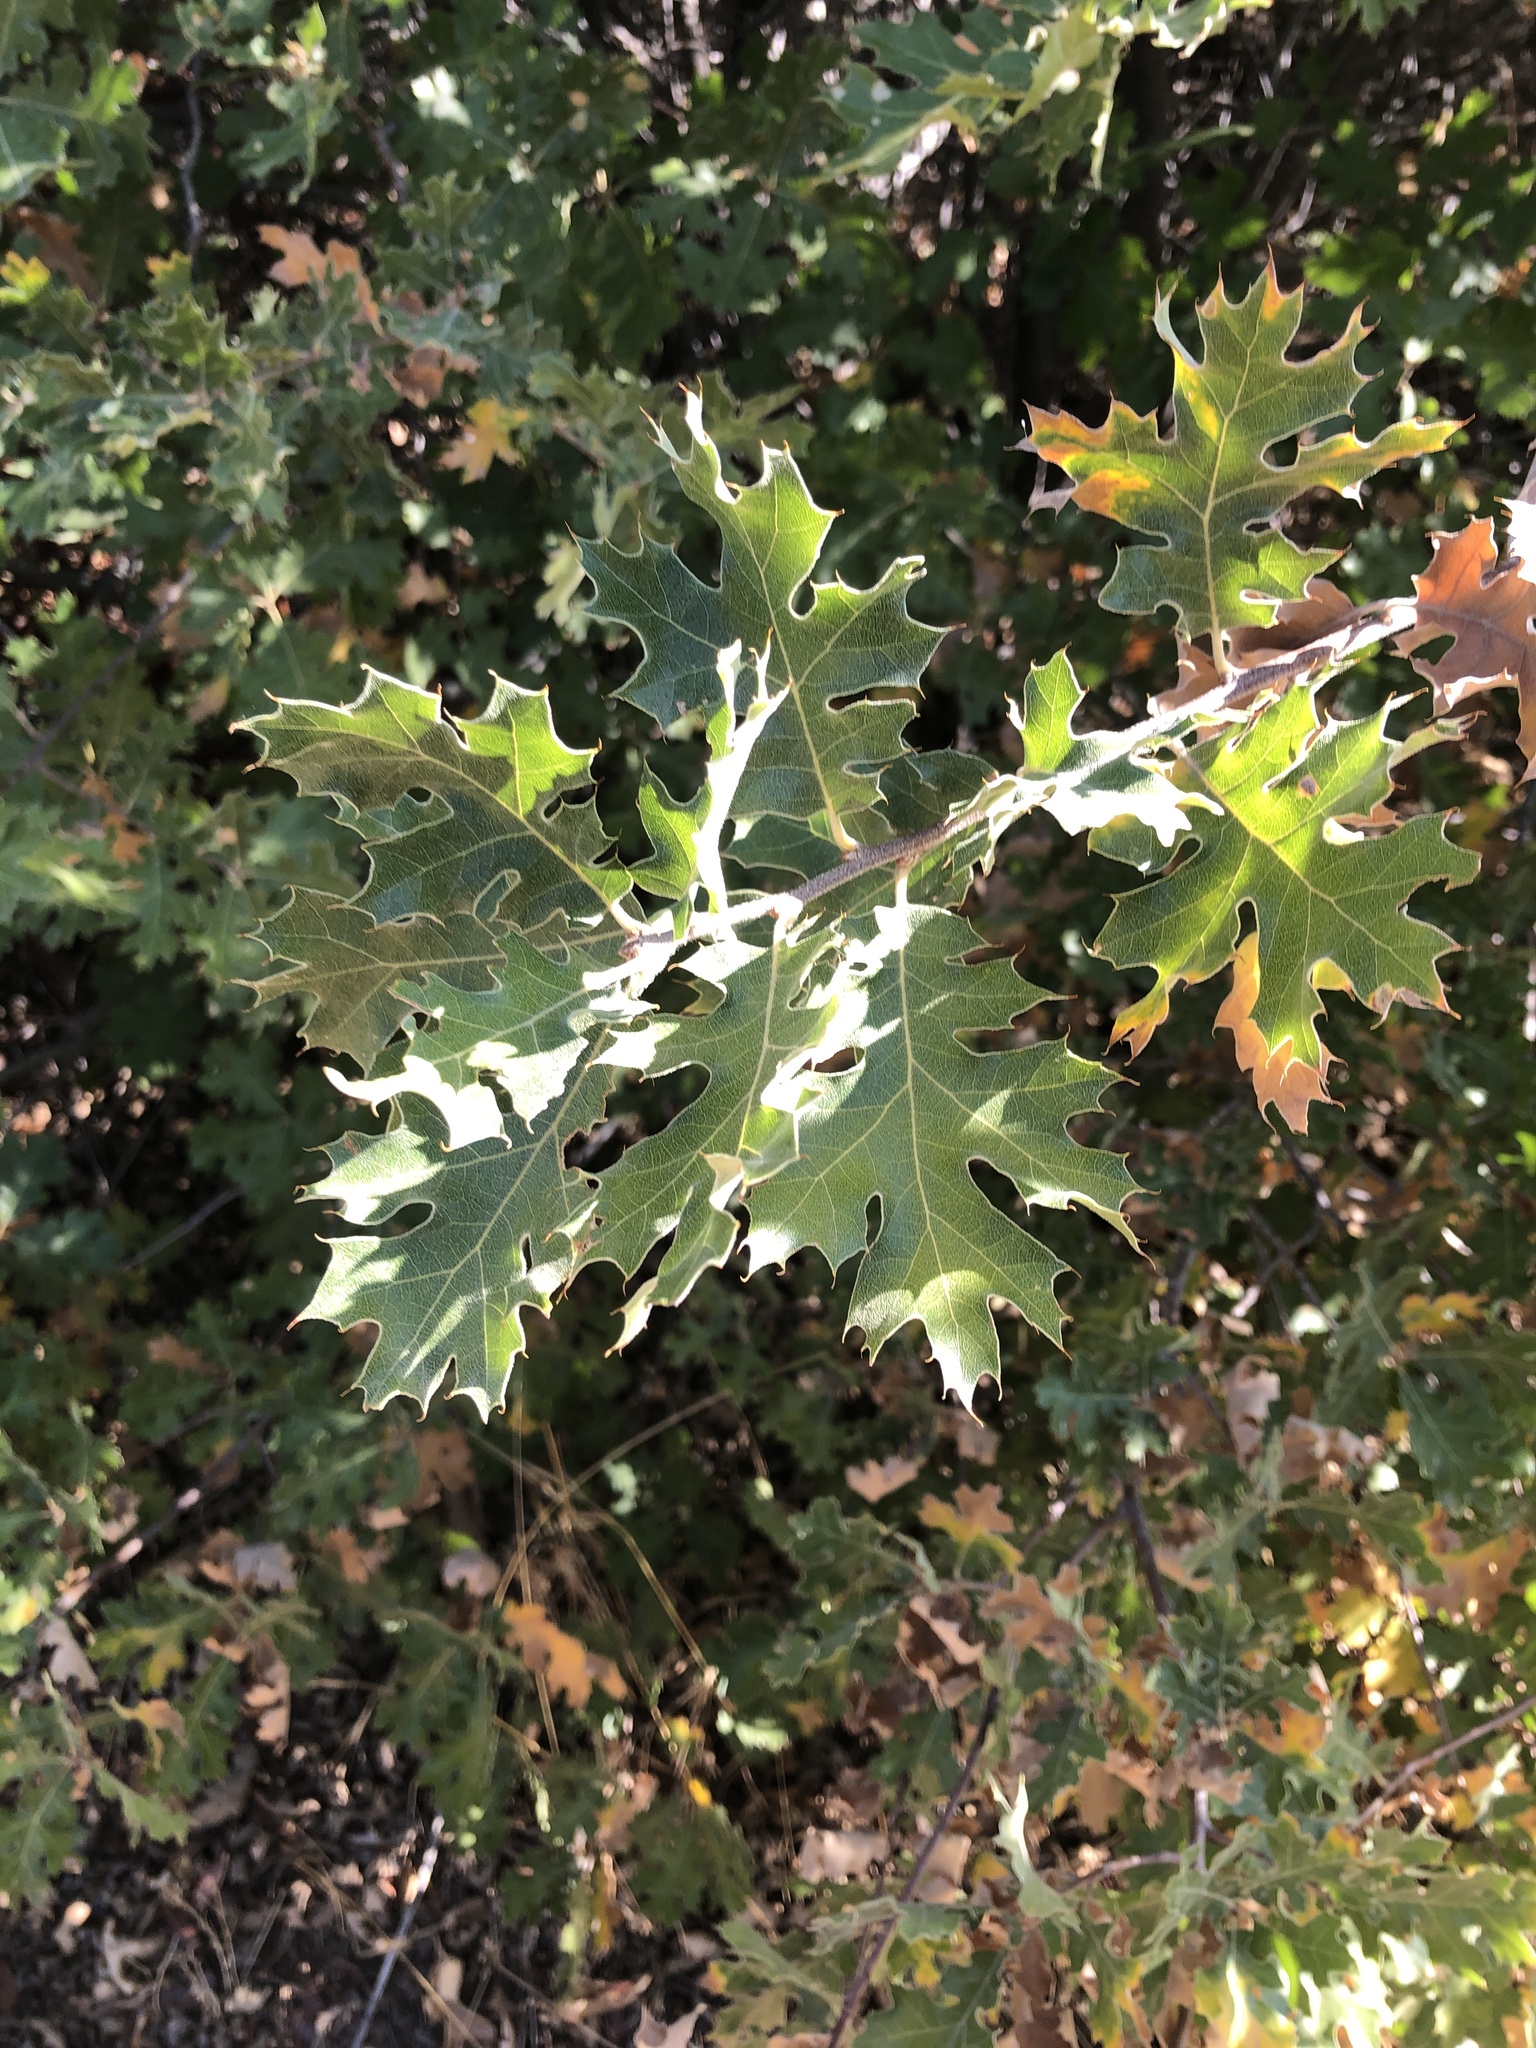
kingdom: Plantae
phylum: Tracheophyta
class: Magnoliopsida
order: Fagales
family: Fagaceae
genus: Quercus
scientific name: Quercus kelloggii
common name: California black oak
